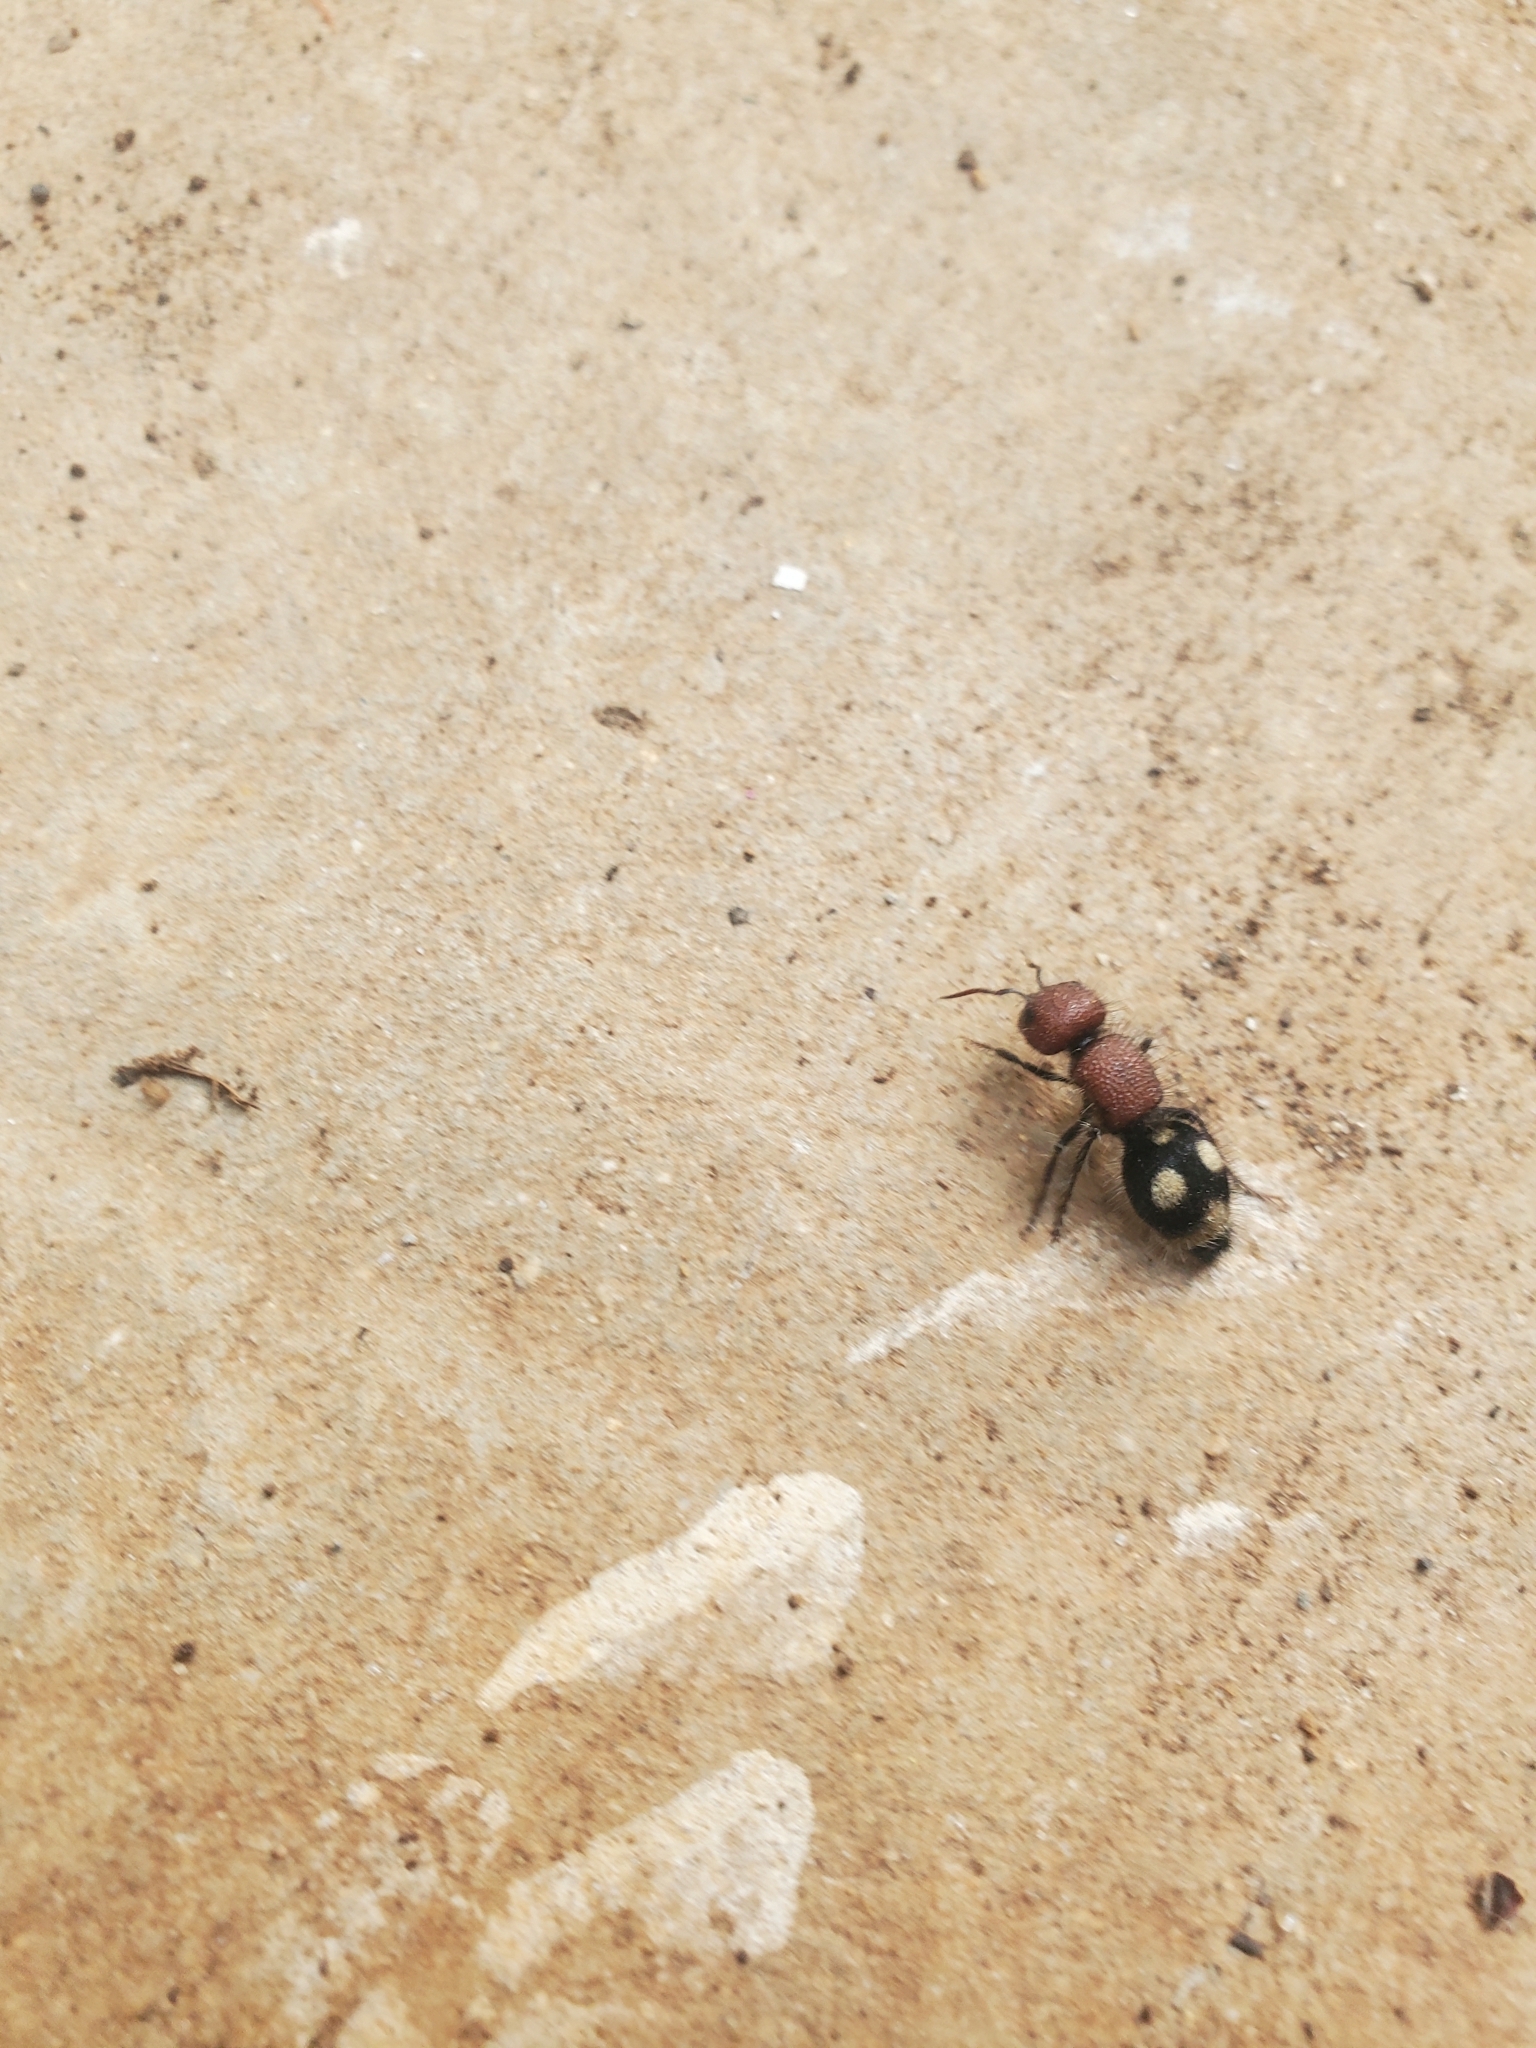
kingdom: Animalia
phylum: Arthropoda
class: Insecta
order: Hymenoptera
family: Mutillidae
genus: Macromyrme
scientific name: Macromyrme sinuata
